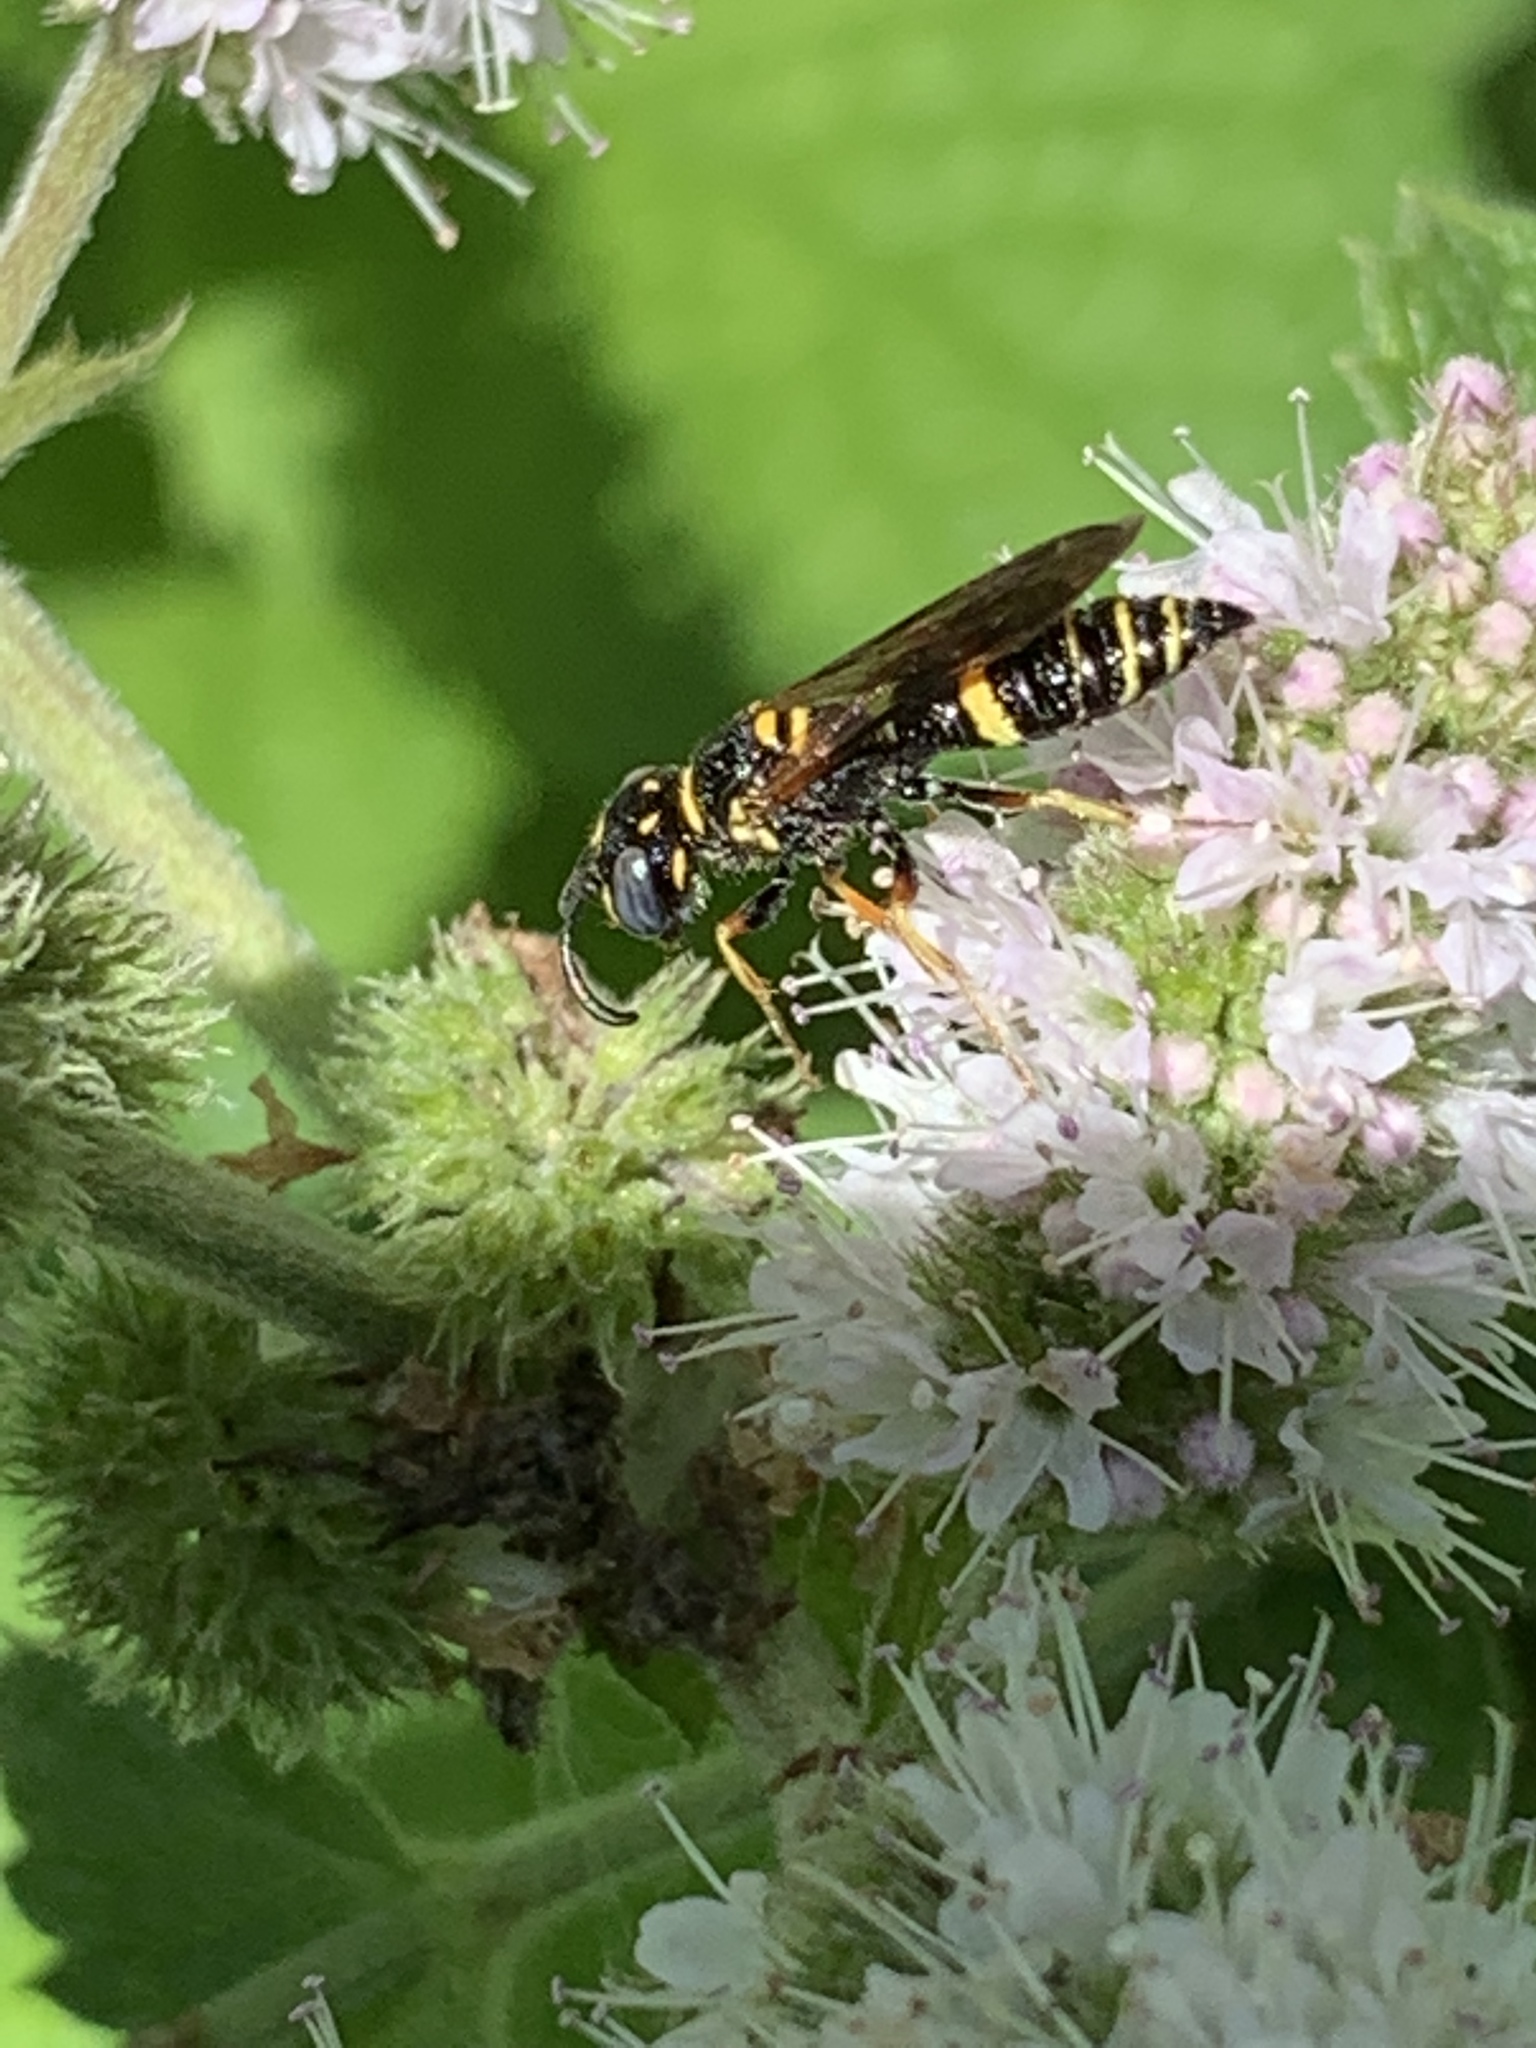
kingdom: Animalia
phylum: Arthropoda
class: Insecta
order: Hymenoptera
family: Crabronidae
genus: Philanthus
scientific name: Philanthus gibbosus
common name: Humped beewolf
